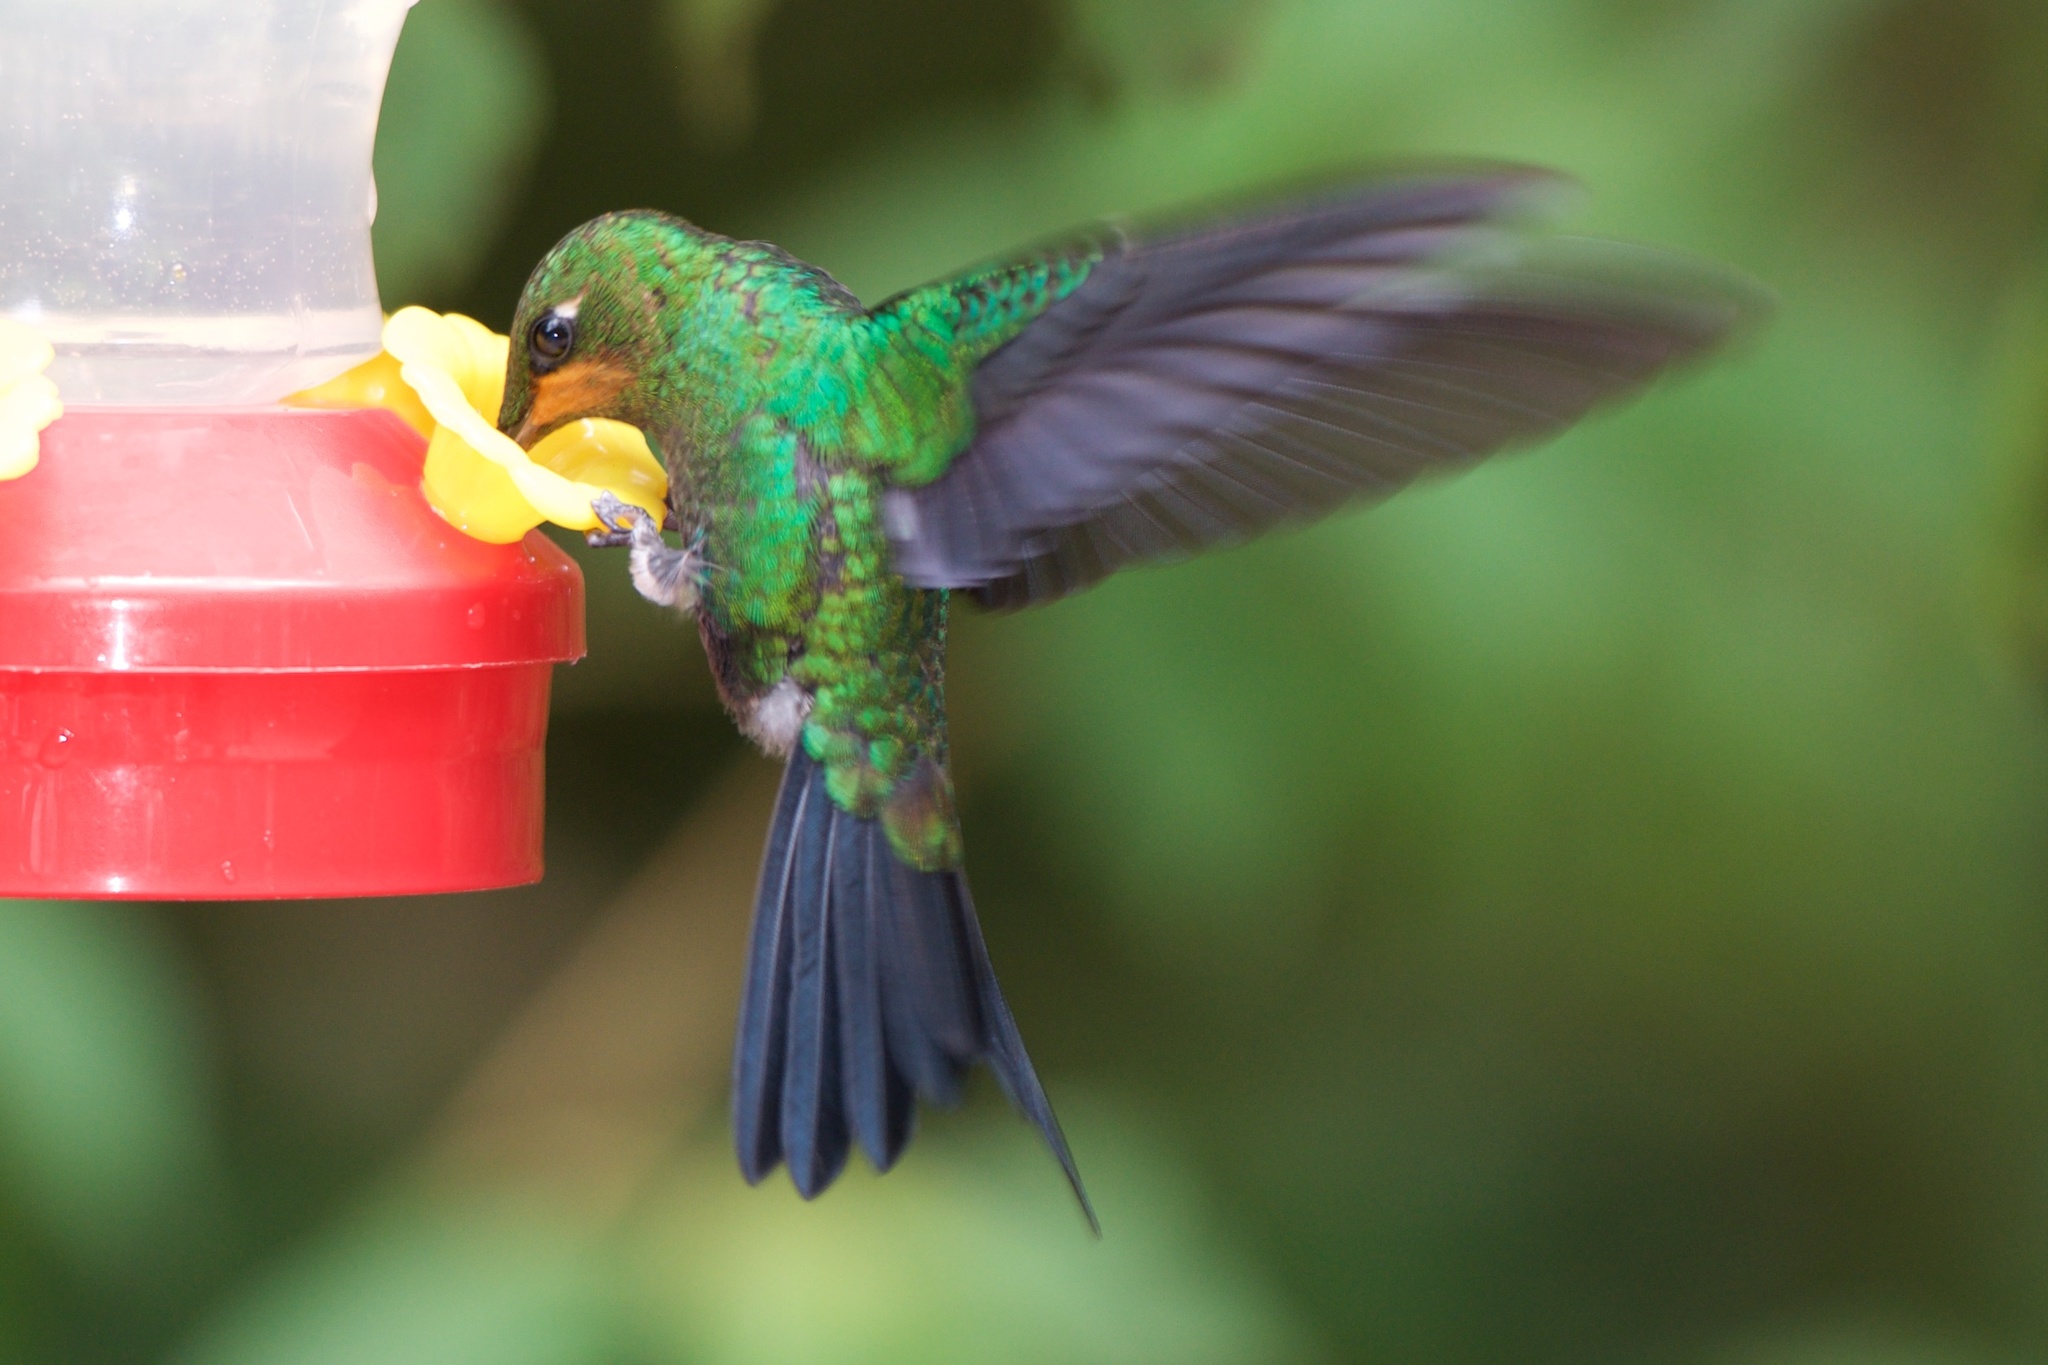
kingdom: Animalia
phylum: Chordata
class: Aves
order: Apodiformes
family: Trochilidae
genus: Heliodoxa
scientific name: Heliodoxa jacula
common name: Green-crowned brilliant
